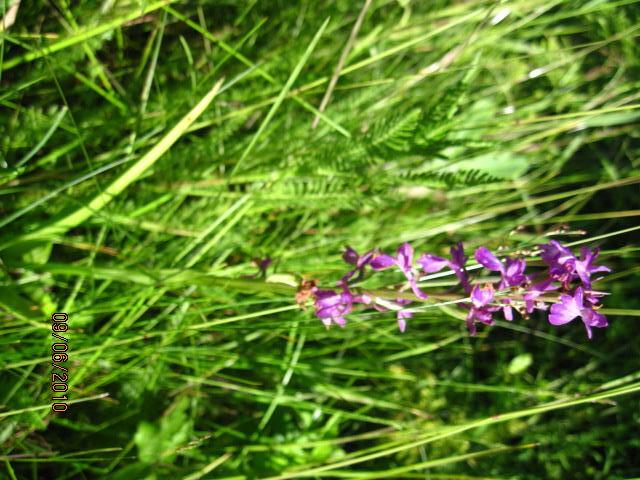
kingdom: Plantae
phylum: Tracheophyta
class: Liliopsida
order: Asparagales
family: Orchidaceae
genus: Anacamptis
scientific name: Anacamptis palustris
